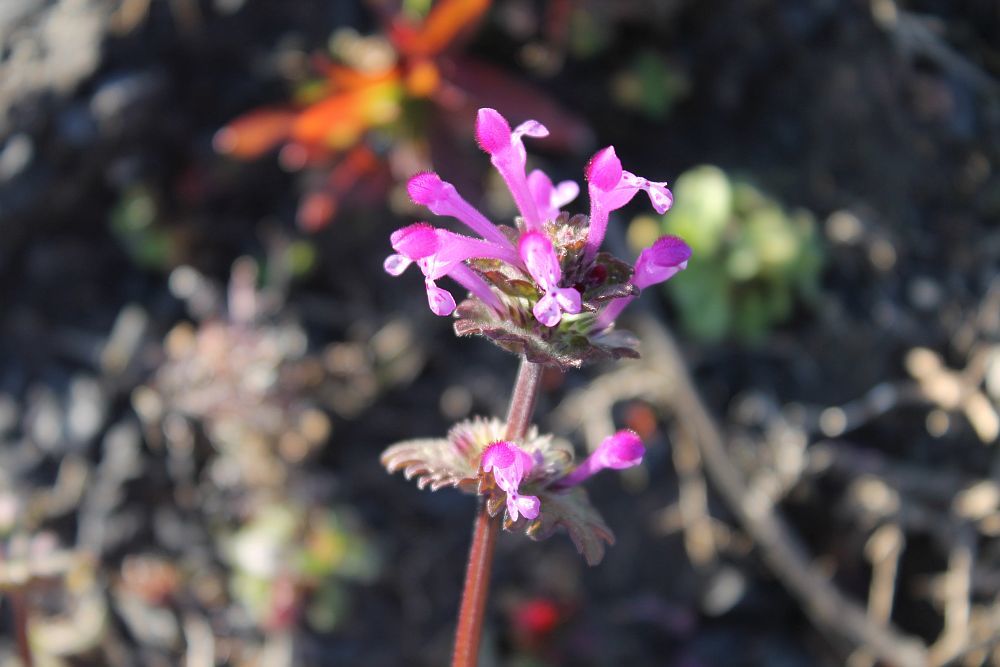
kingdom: Plantae
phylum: Tracheophyta
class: Magnoliopsida
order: Lamiales
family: Lamiaceae
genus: Lamium
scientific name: Lamium amplexicaule
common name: Henbit dead-nettle
